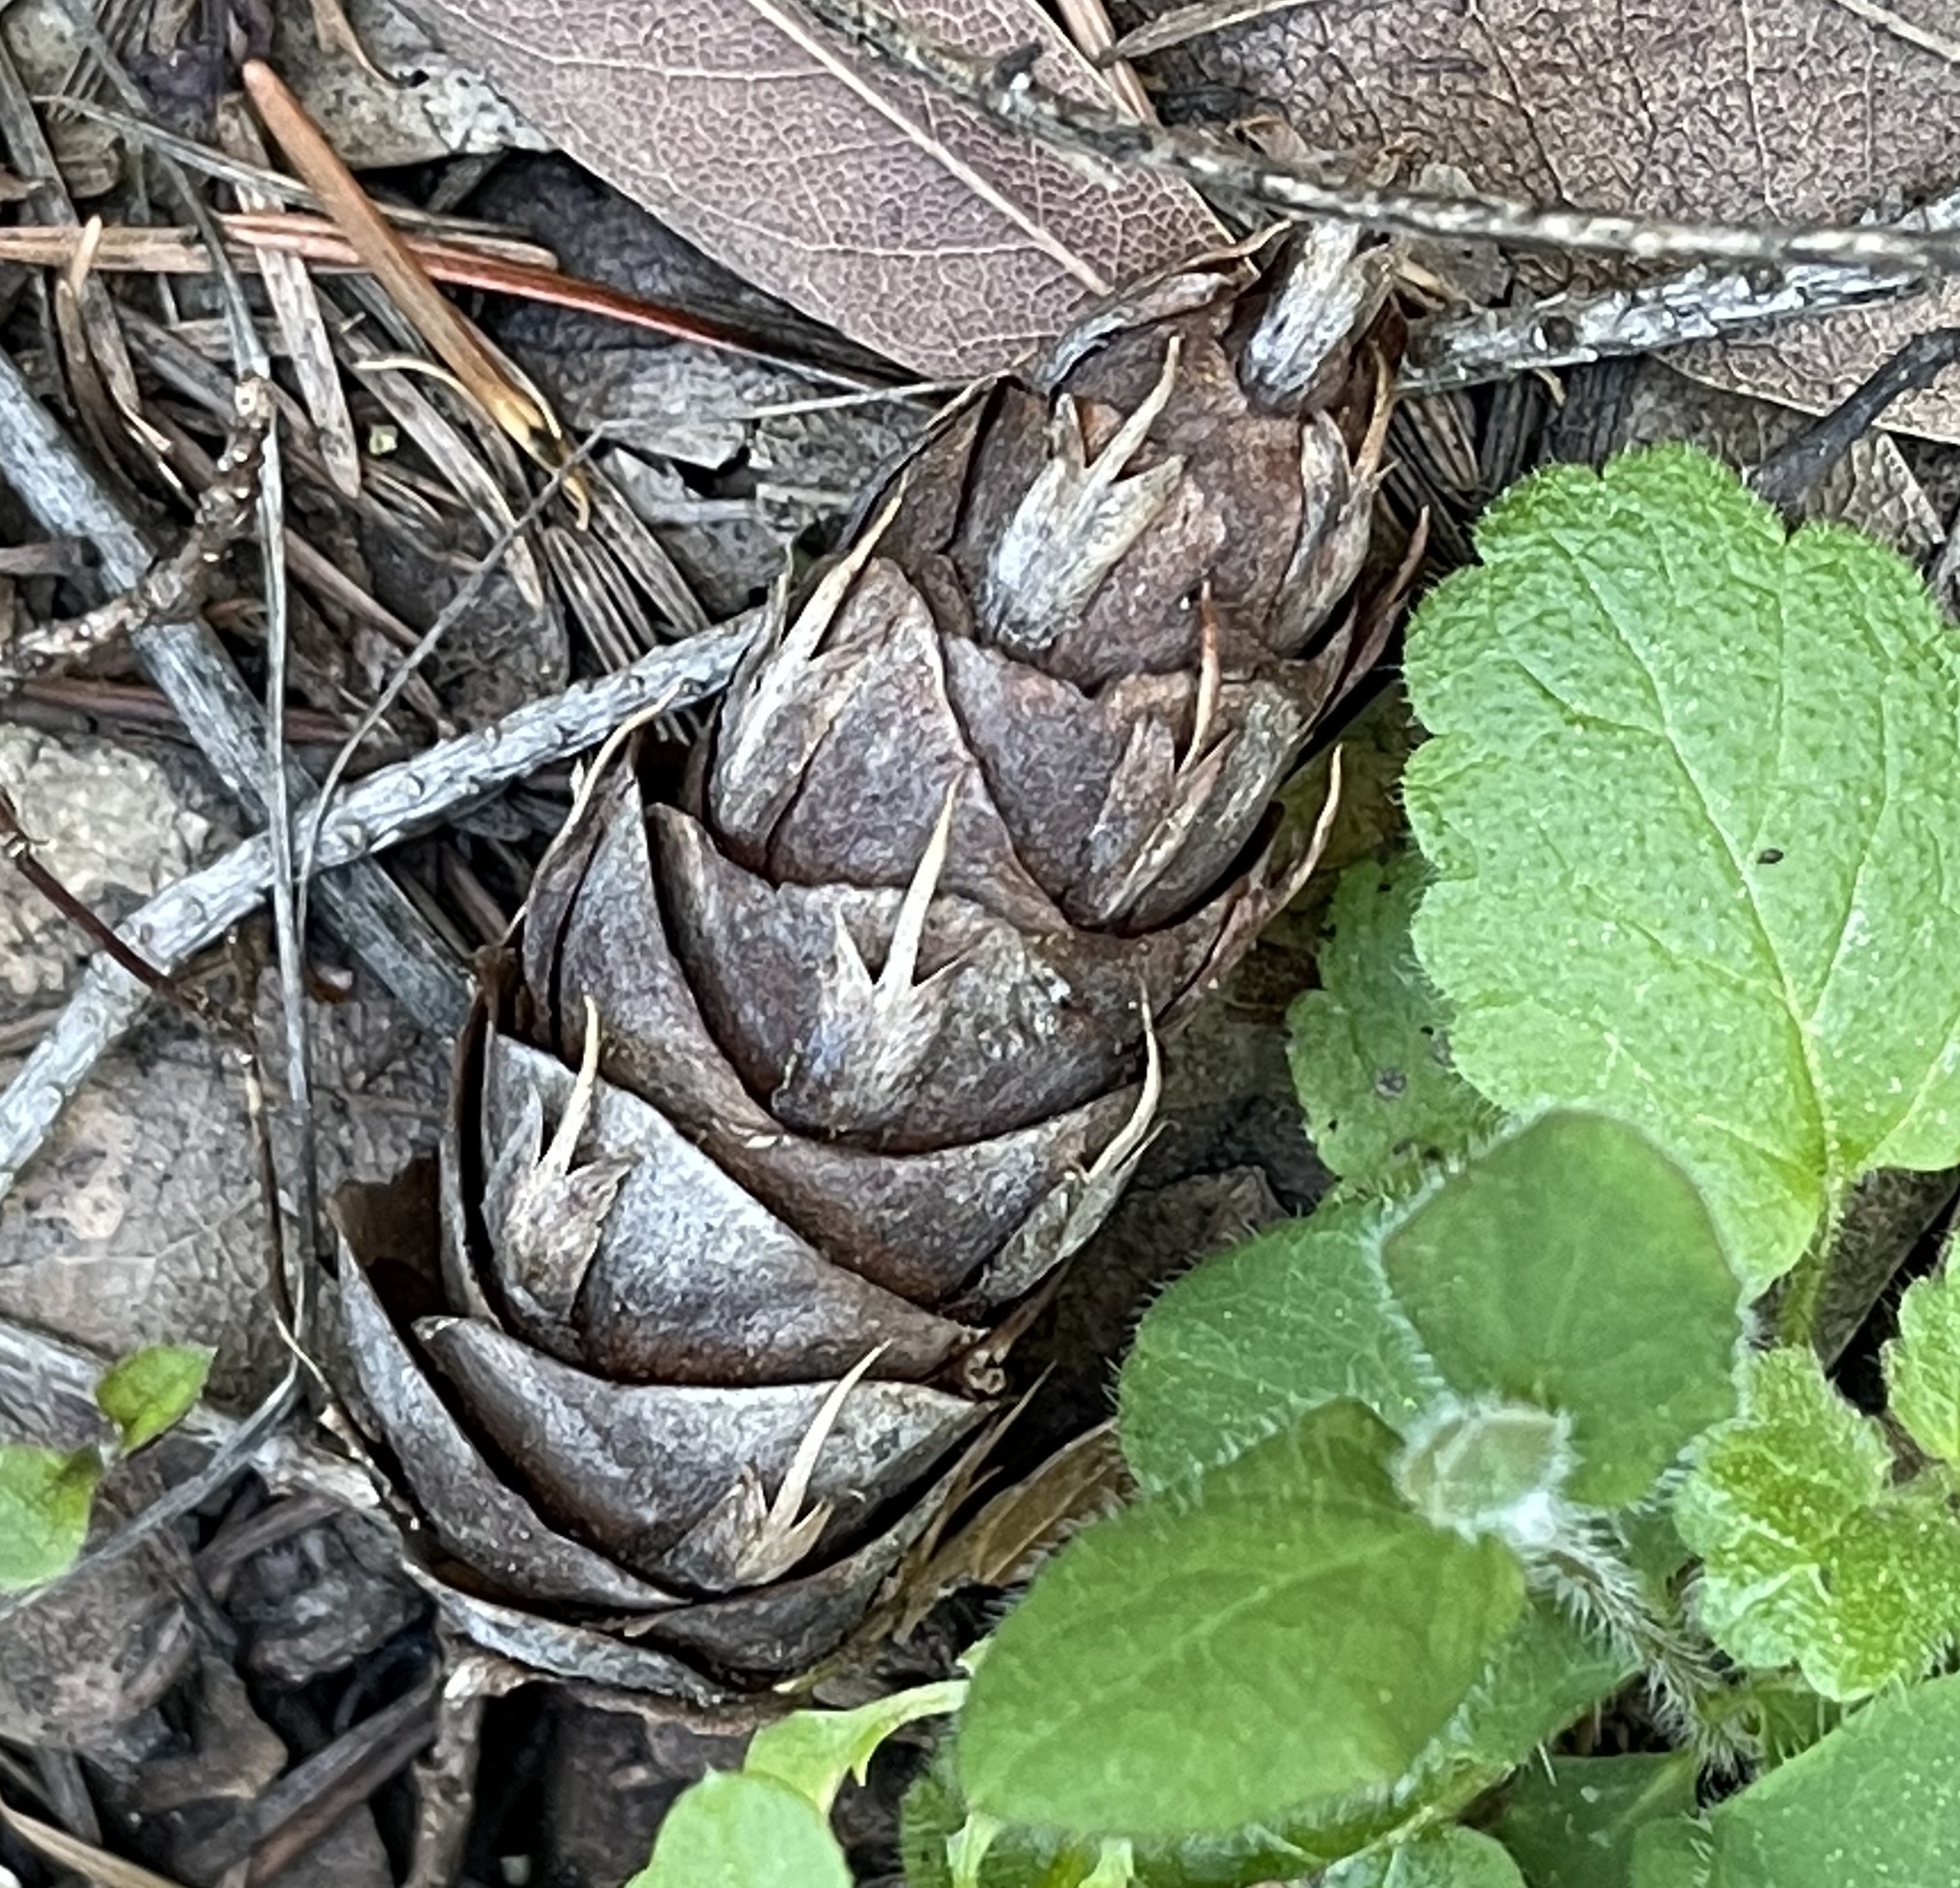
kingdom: Plantae
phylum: Tracheophyta
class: Pinopsida
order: Pinales
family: Pinaceae
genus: Pseudotsuga
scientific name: Pseudotsuga menziesii
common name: Douglas fir
